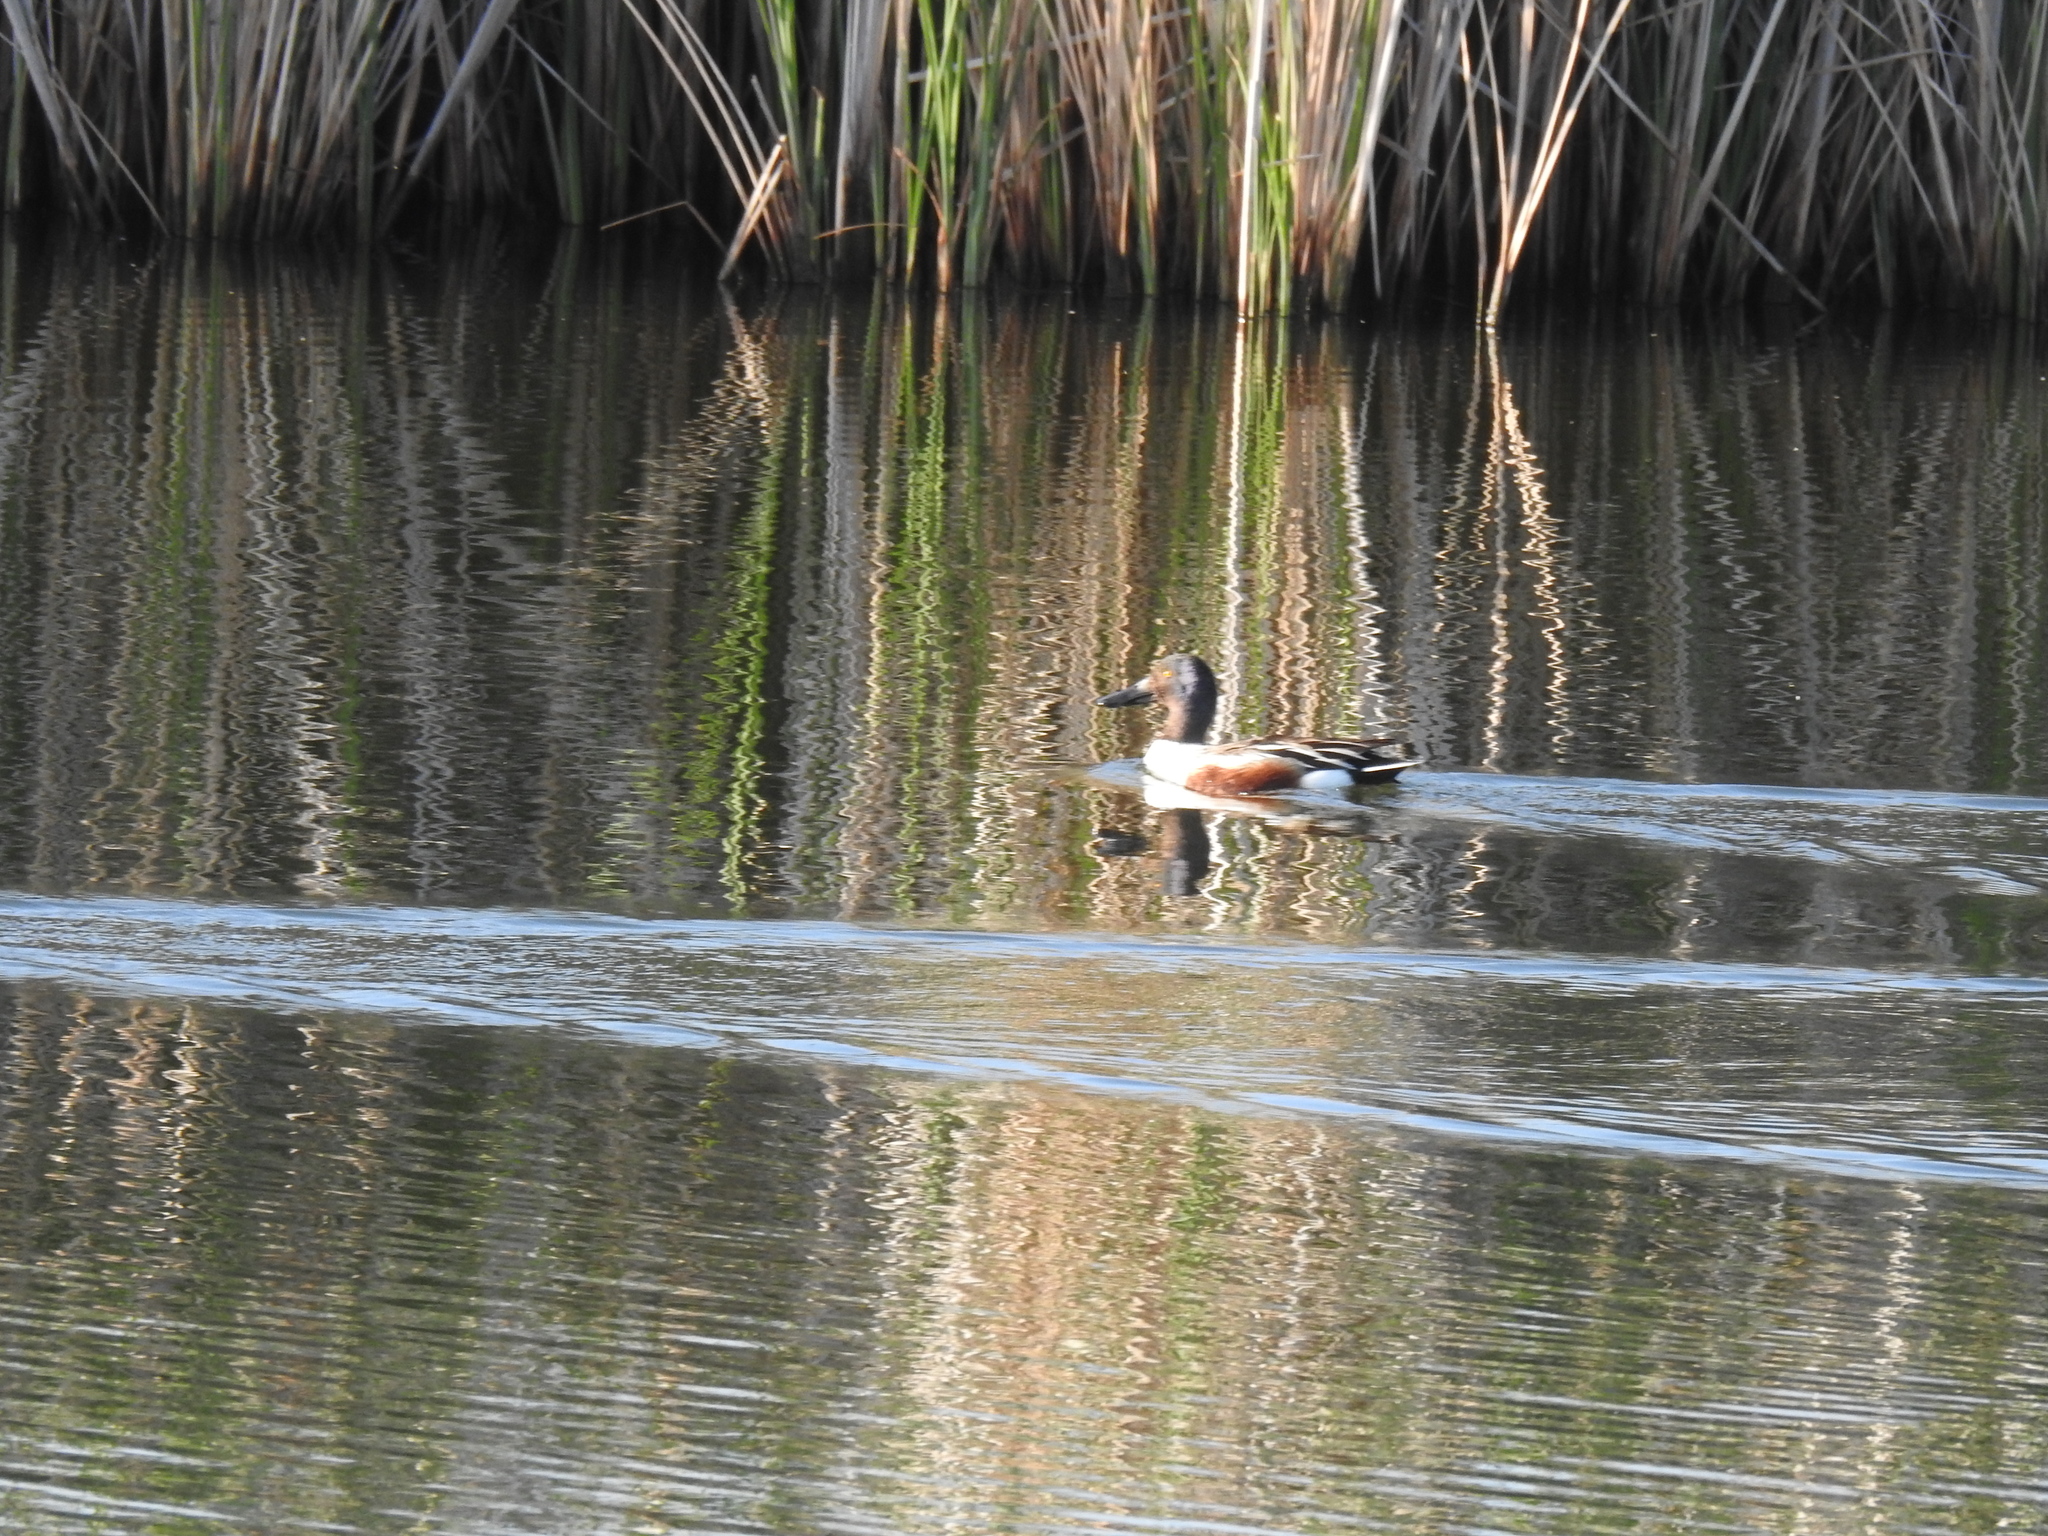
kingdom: Animalia
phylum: Chordata
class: Aves
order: Anseriformes
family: Anatidae
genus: Spatula
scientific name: Spatula clypeata
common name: Northern shoveler
